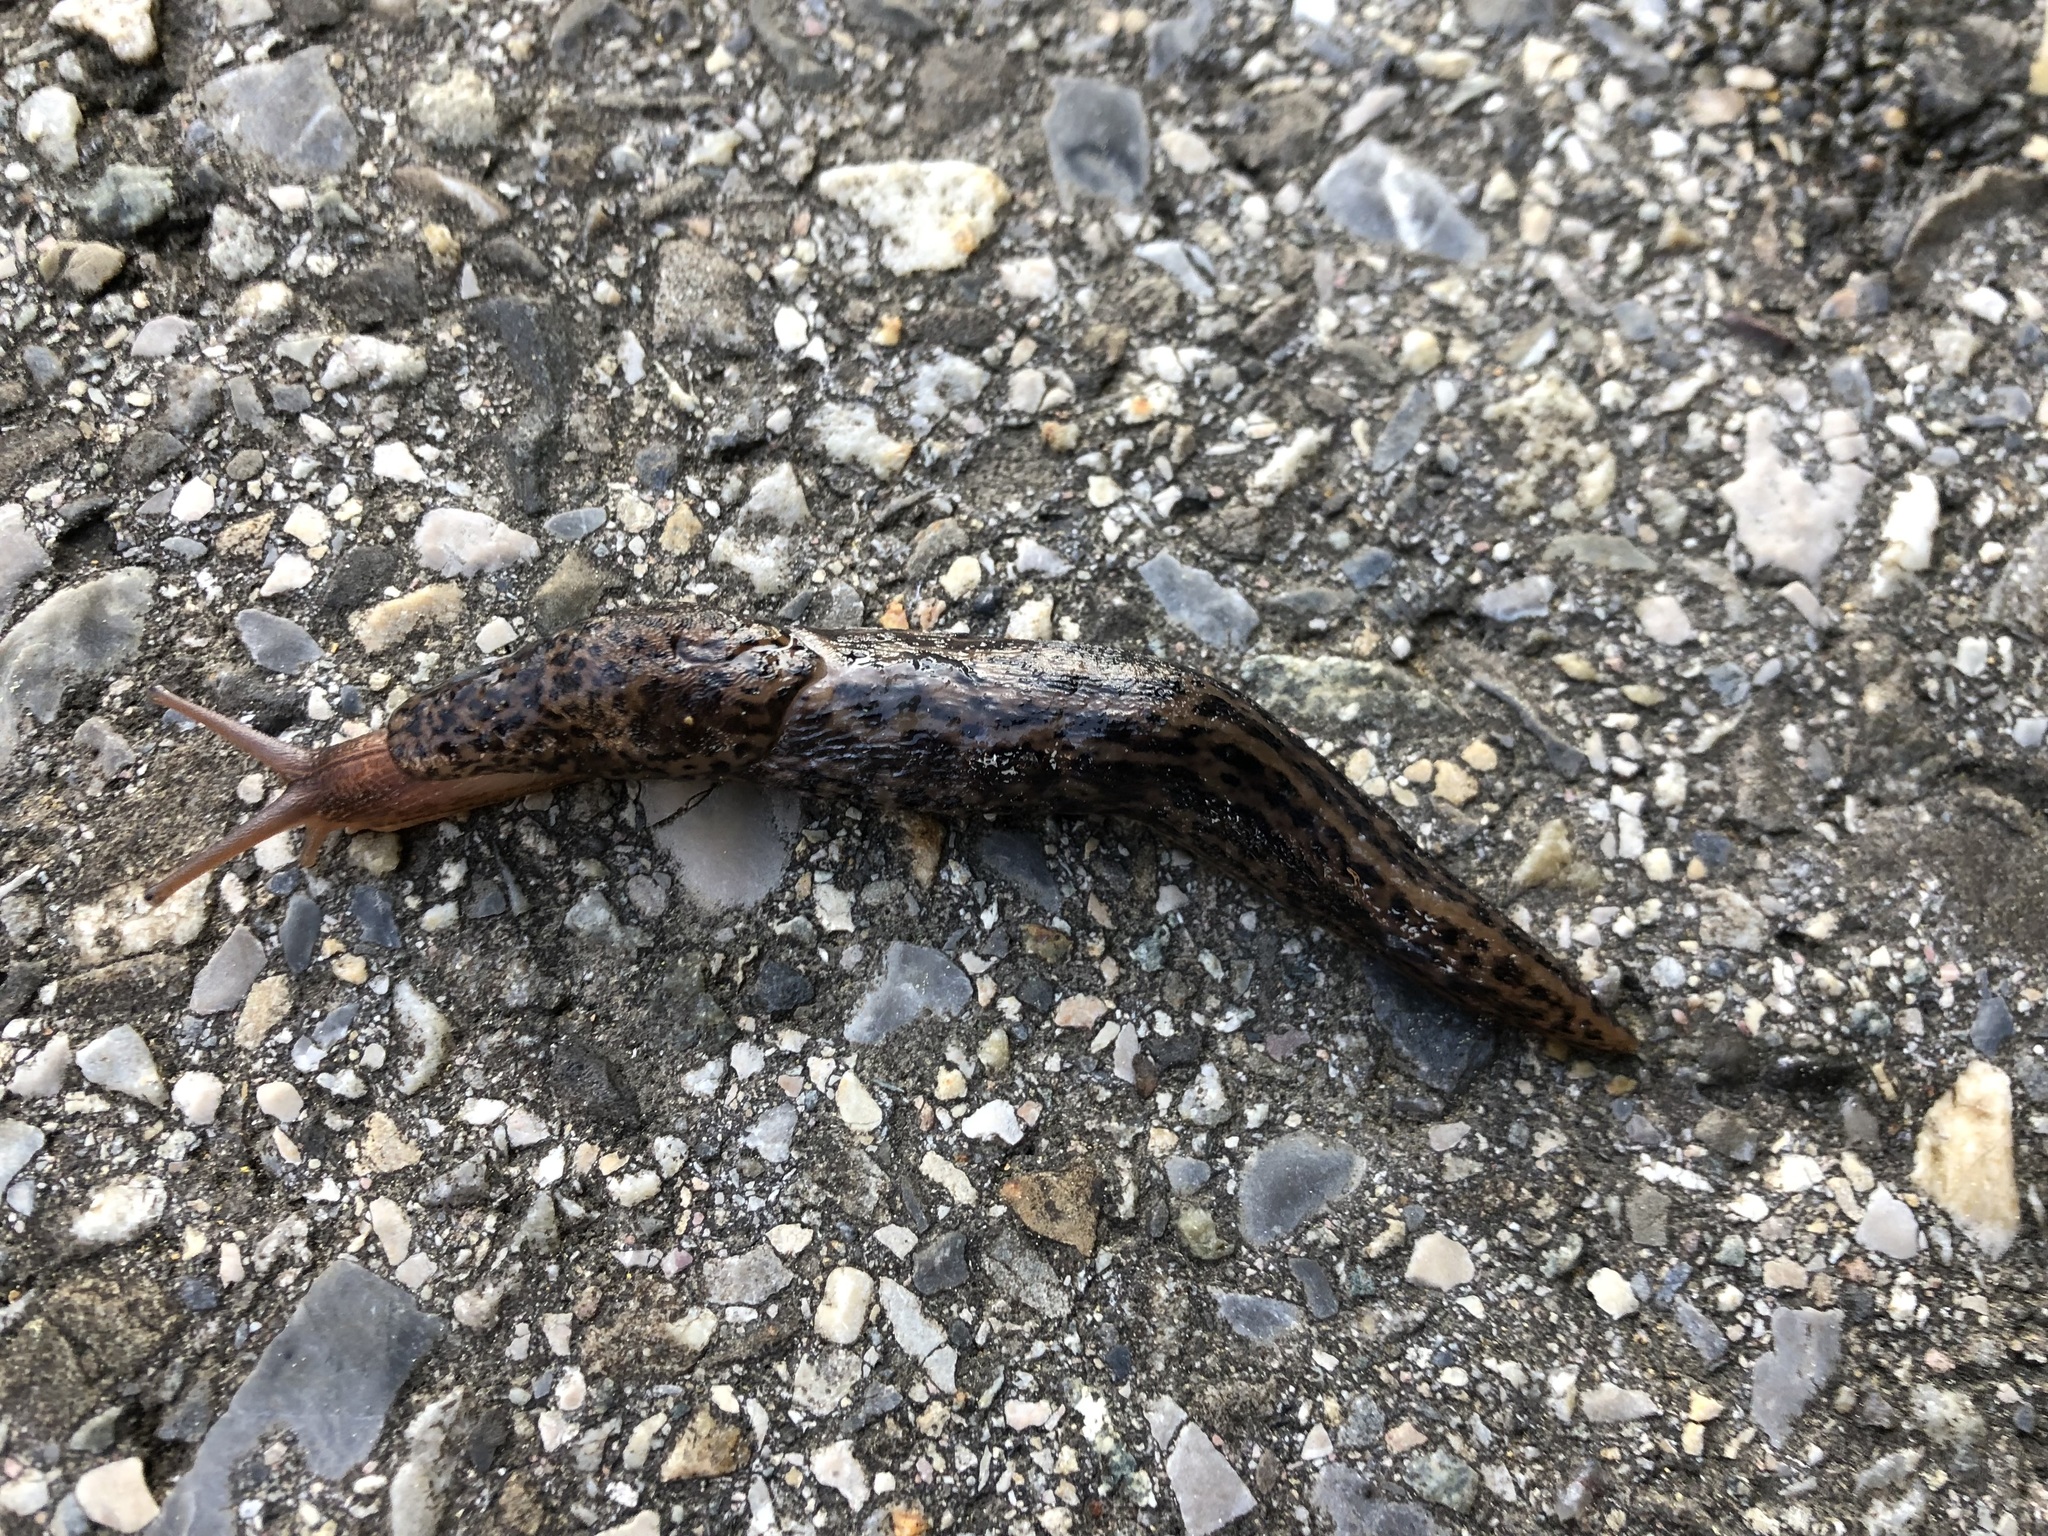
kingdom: Animalia
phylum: Mollusca
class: Gastropoda
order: Stylommatophora
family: Limacidae
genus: Limax
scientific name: Limax maximus
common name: Great grey slug
